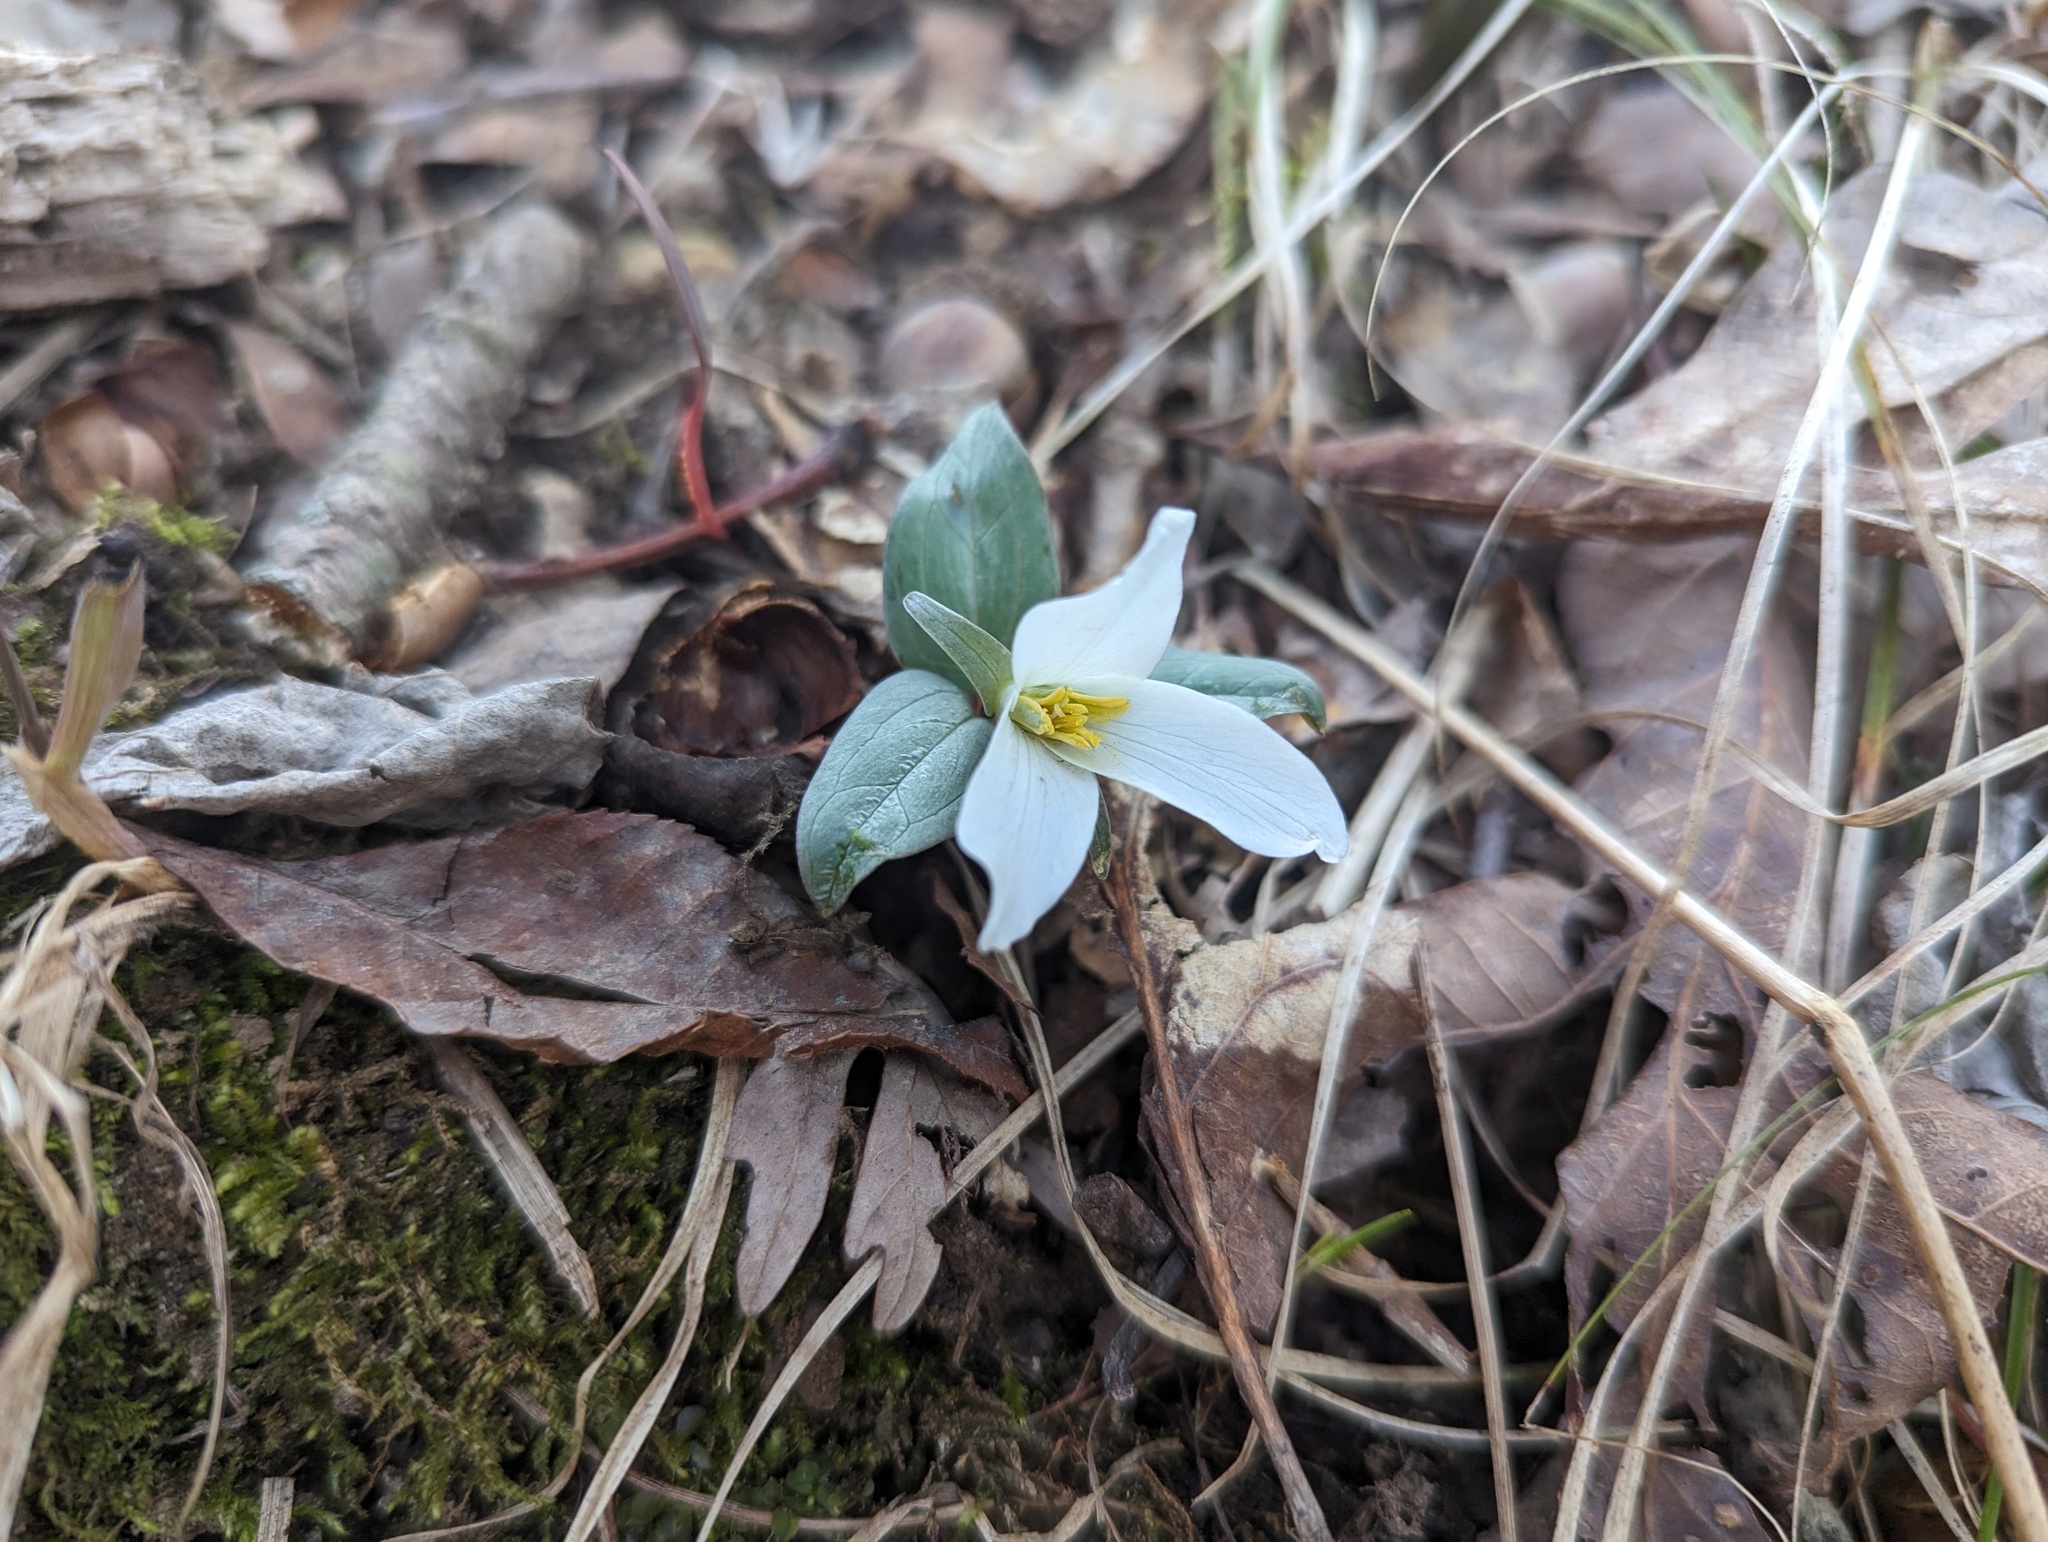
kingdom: Plantae
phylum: Tracheophyta
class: Liliopsida
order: Liliales
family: Melanthiaceae
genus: Trillium
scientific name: Trillium nivale
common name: Dwarf white trillium
